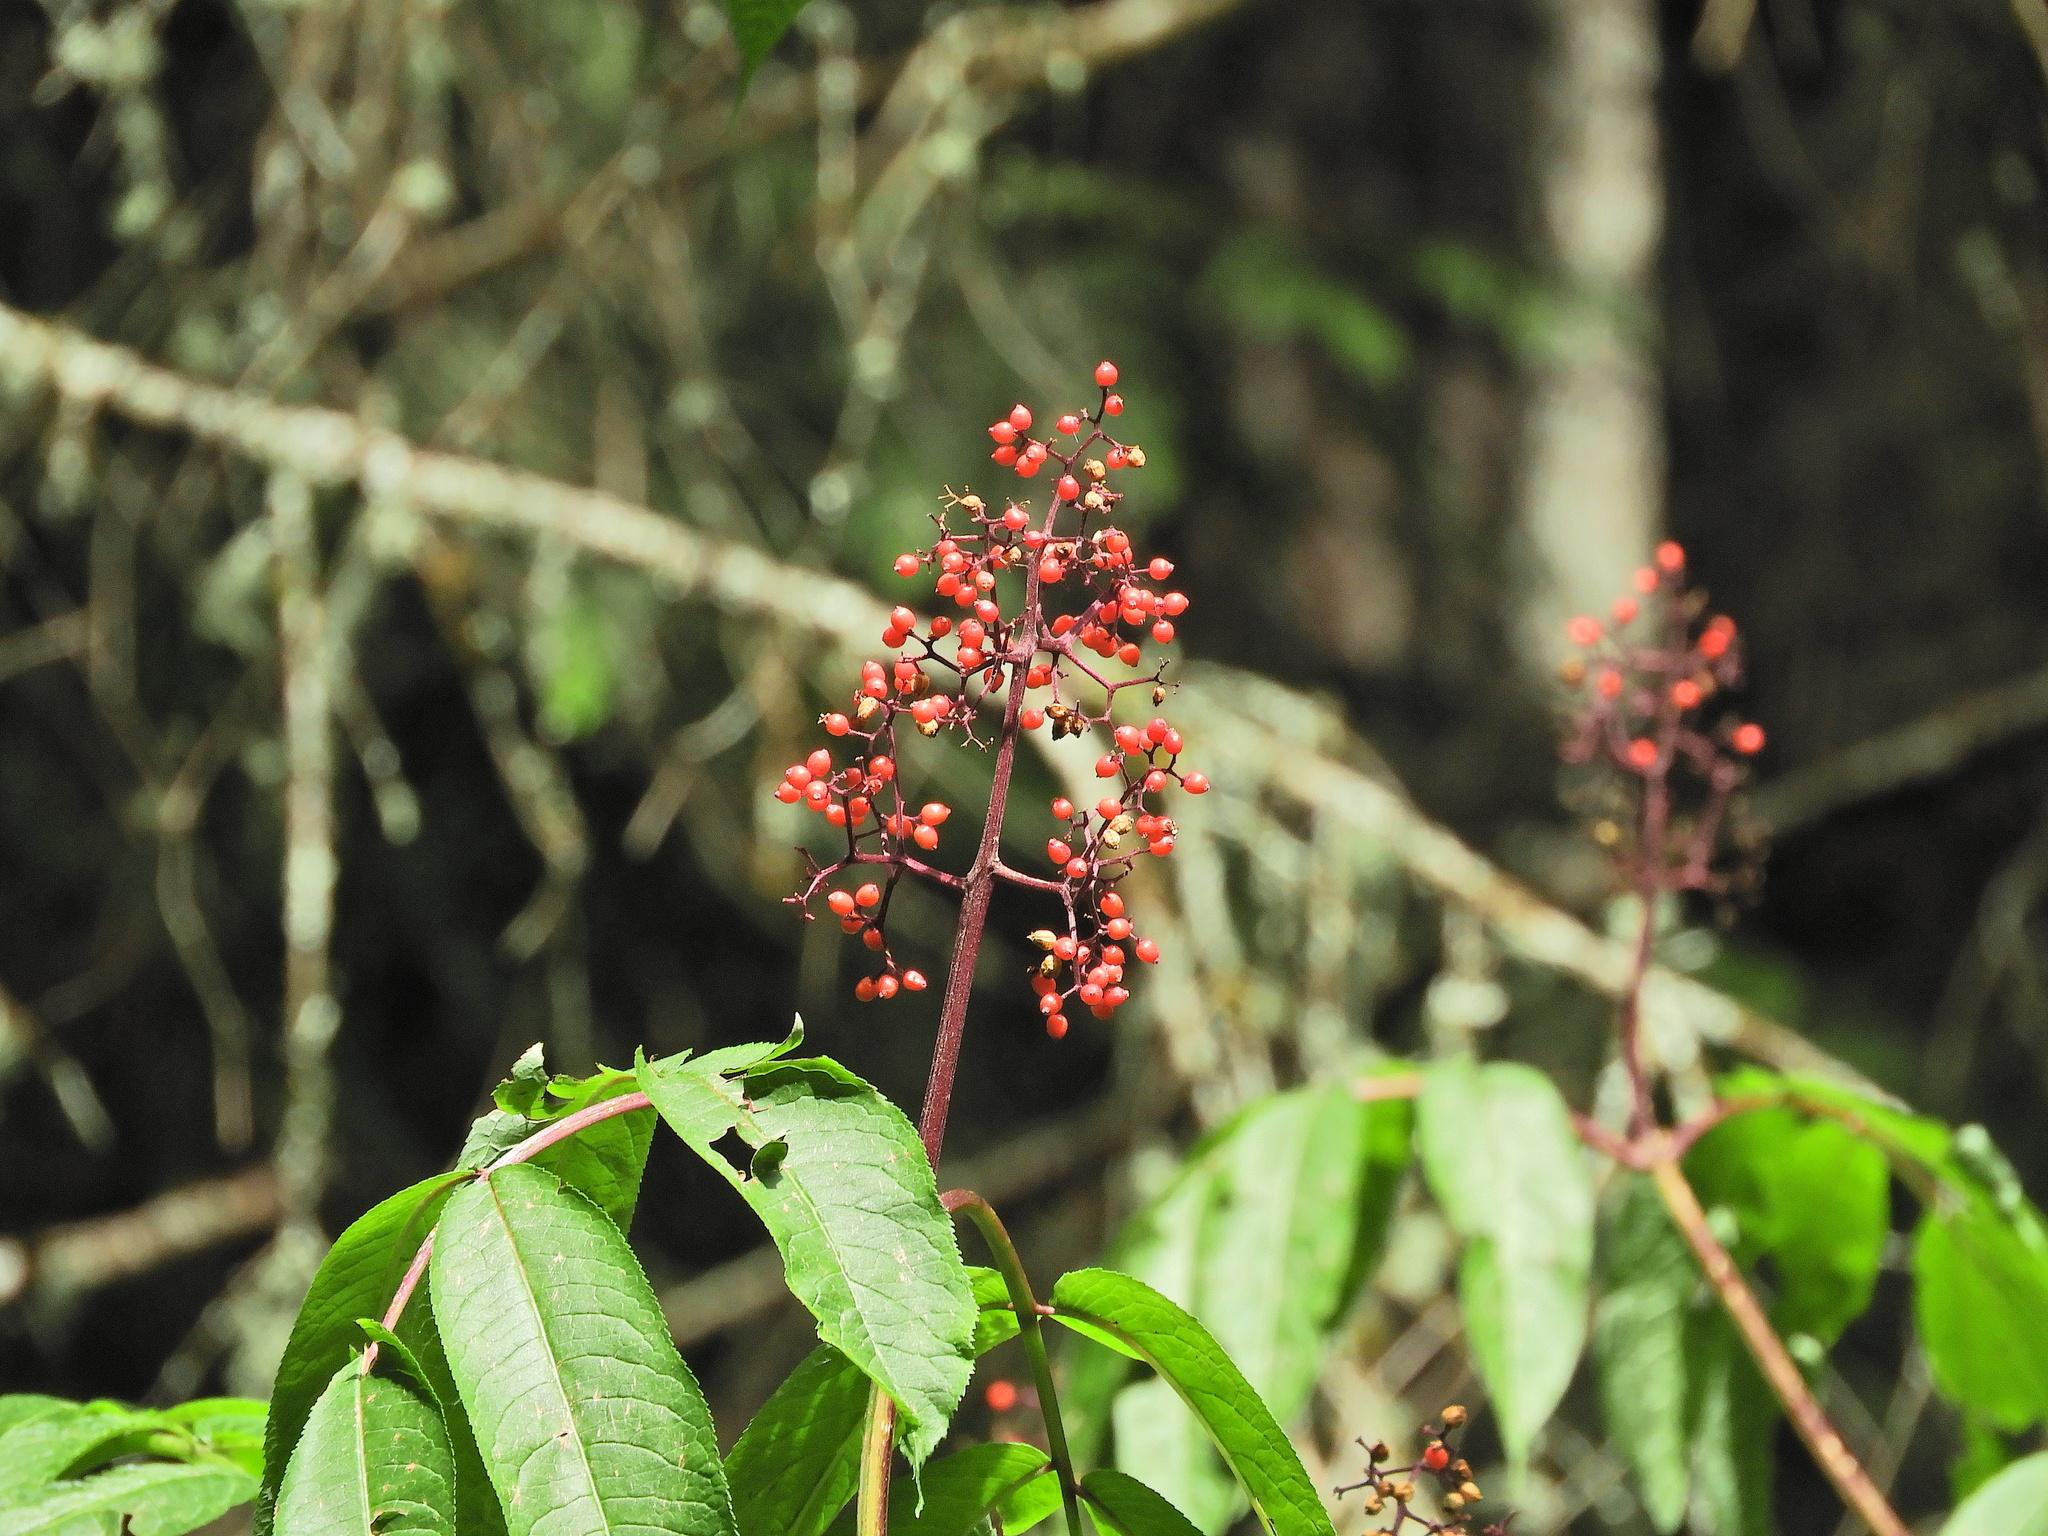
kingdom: Plantae
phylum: Tracheophyta
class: Magnoliopsida
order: Dipsacales
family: Viburnaceae
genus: Sambucus
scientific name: Sambucus racemosa
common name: Red-berried elder
